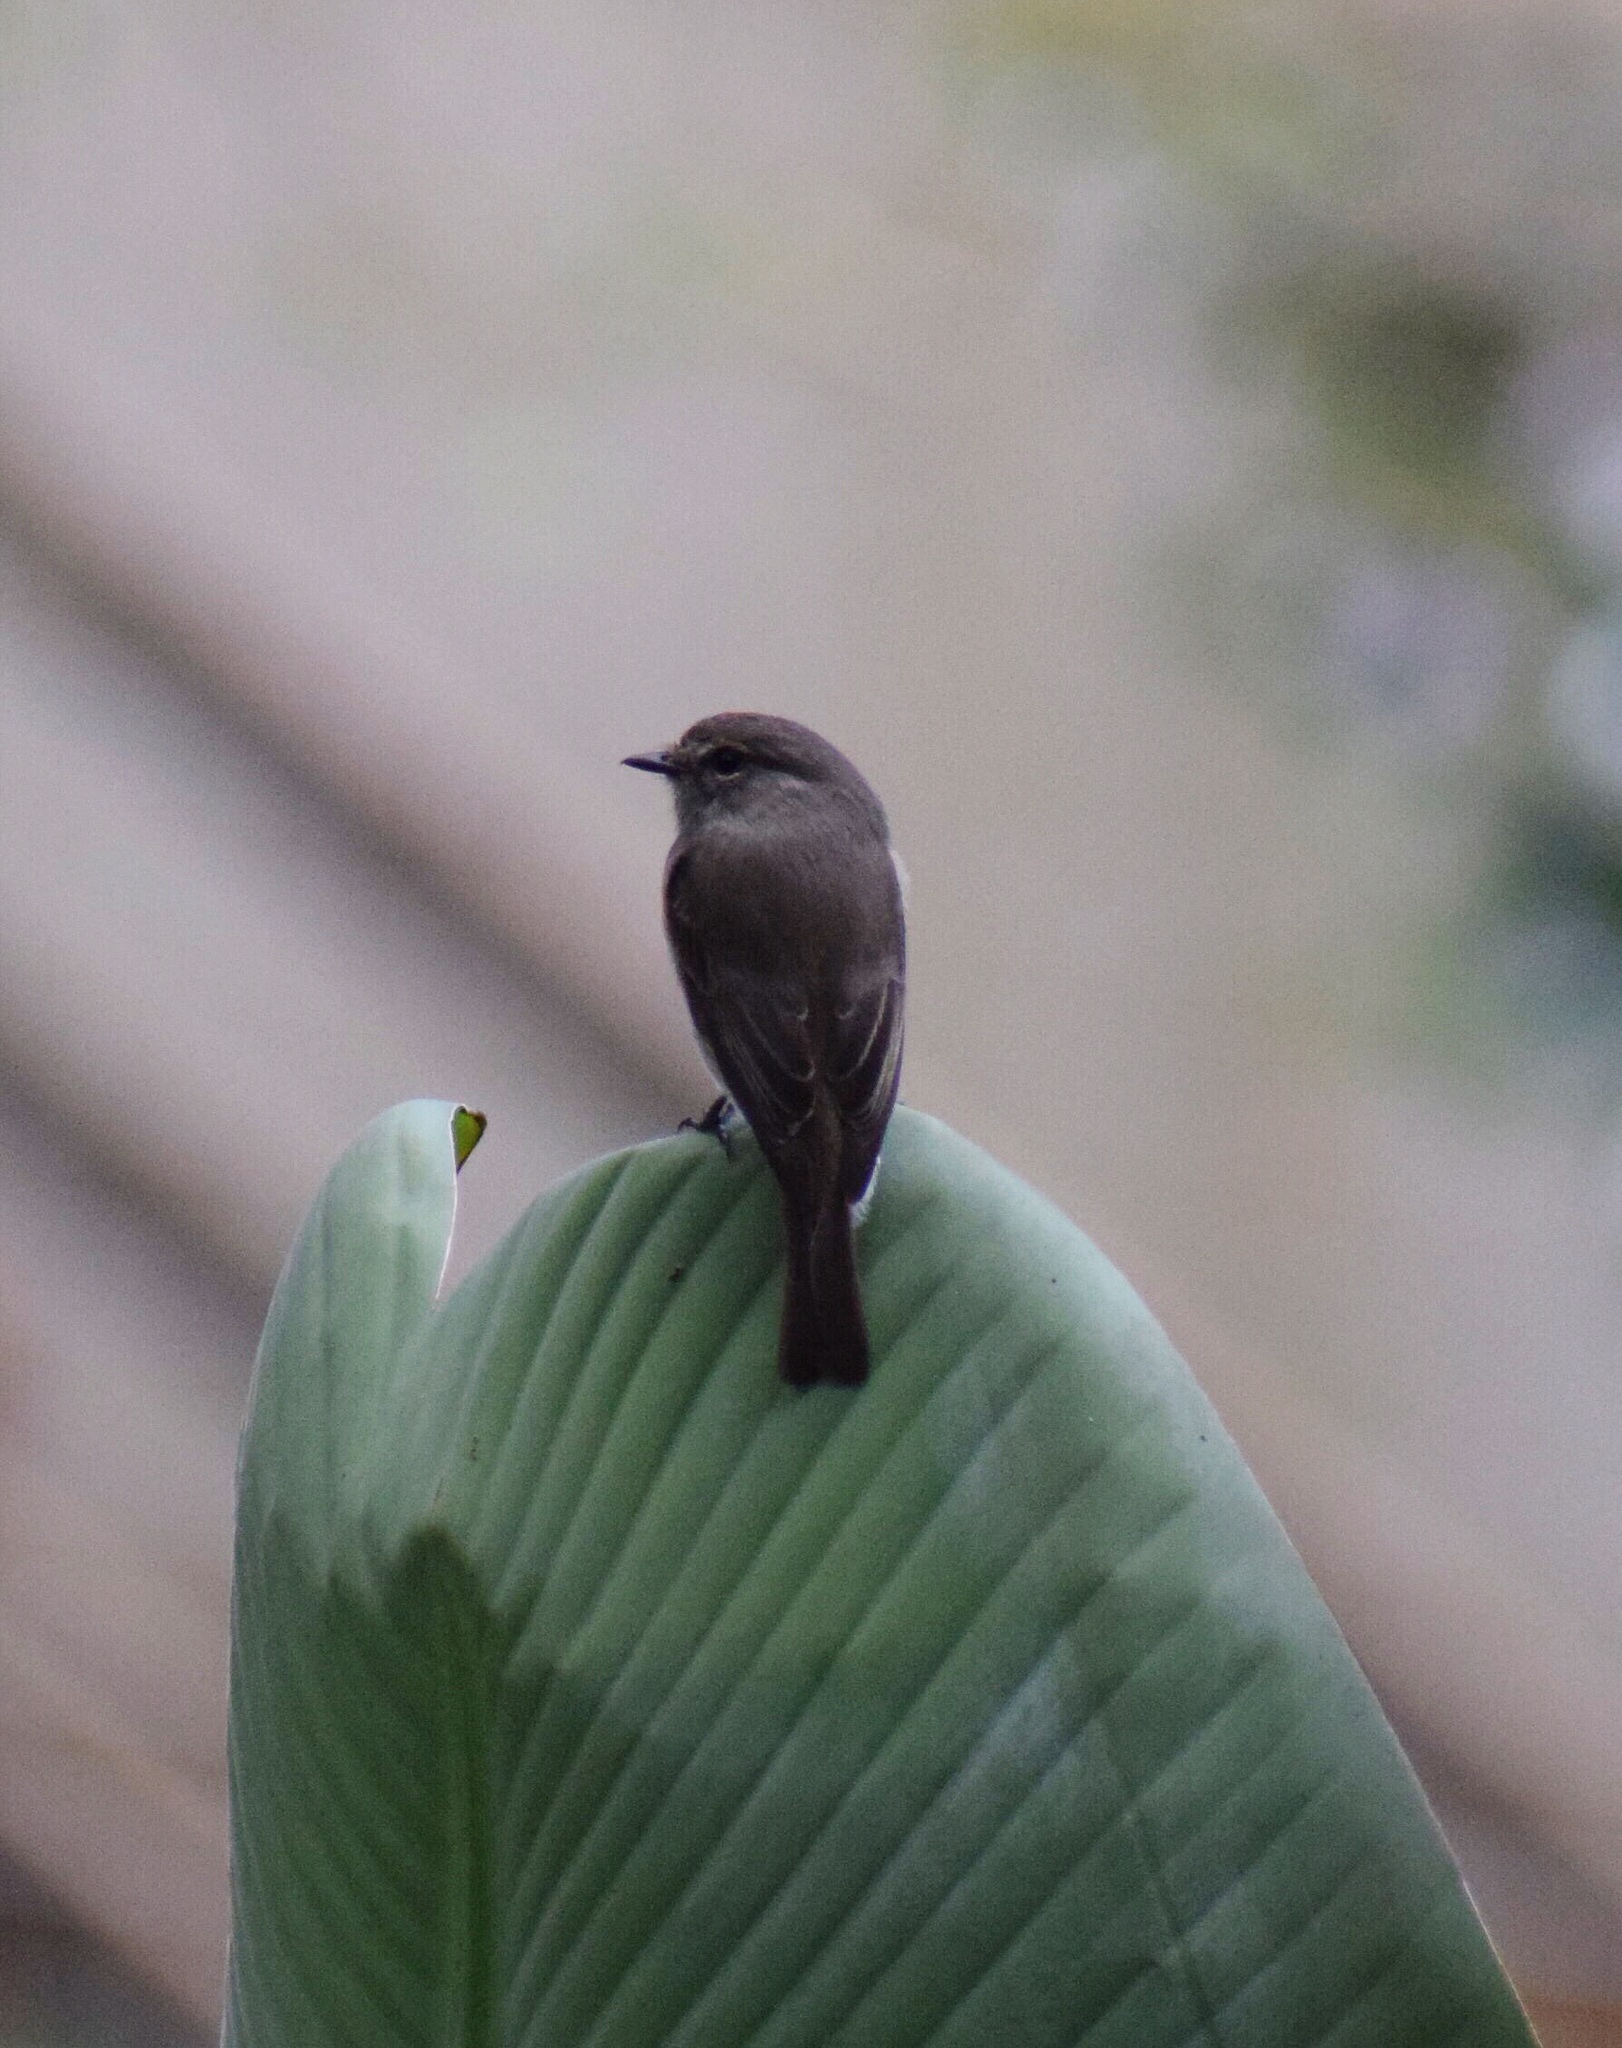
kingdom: Animalia
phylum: Chordata
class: Aves
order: Passeriformes
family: Muscicapidae
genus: Muscicapa
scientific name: Muscicapa adusta
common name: African dusky flycatcher
